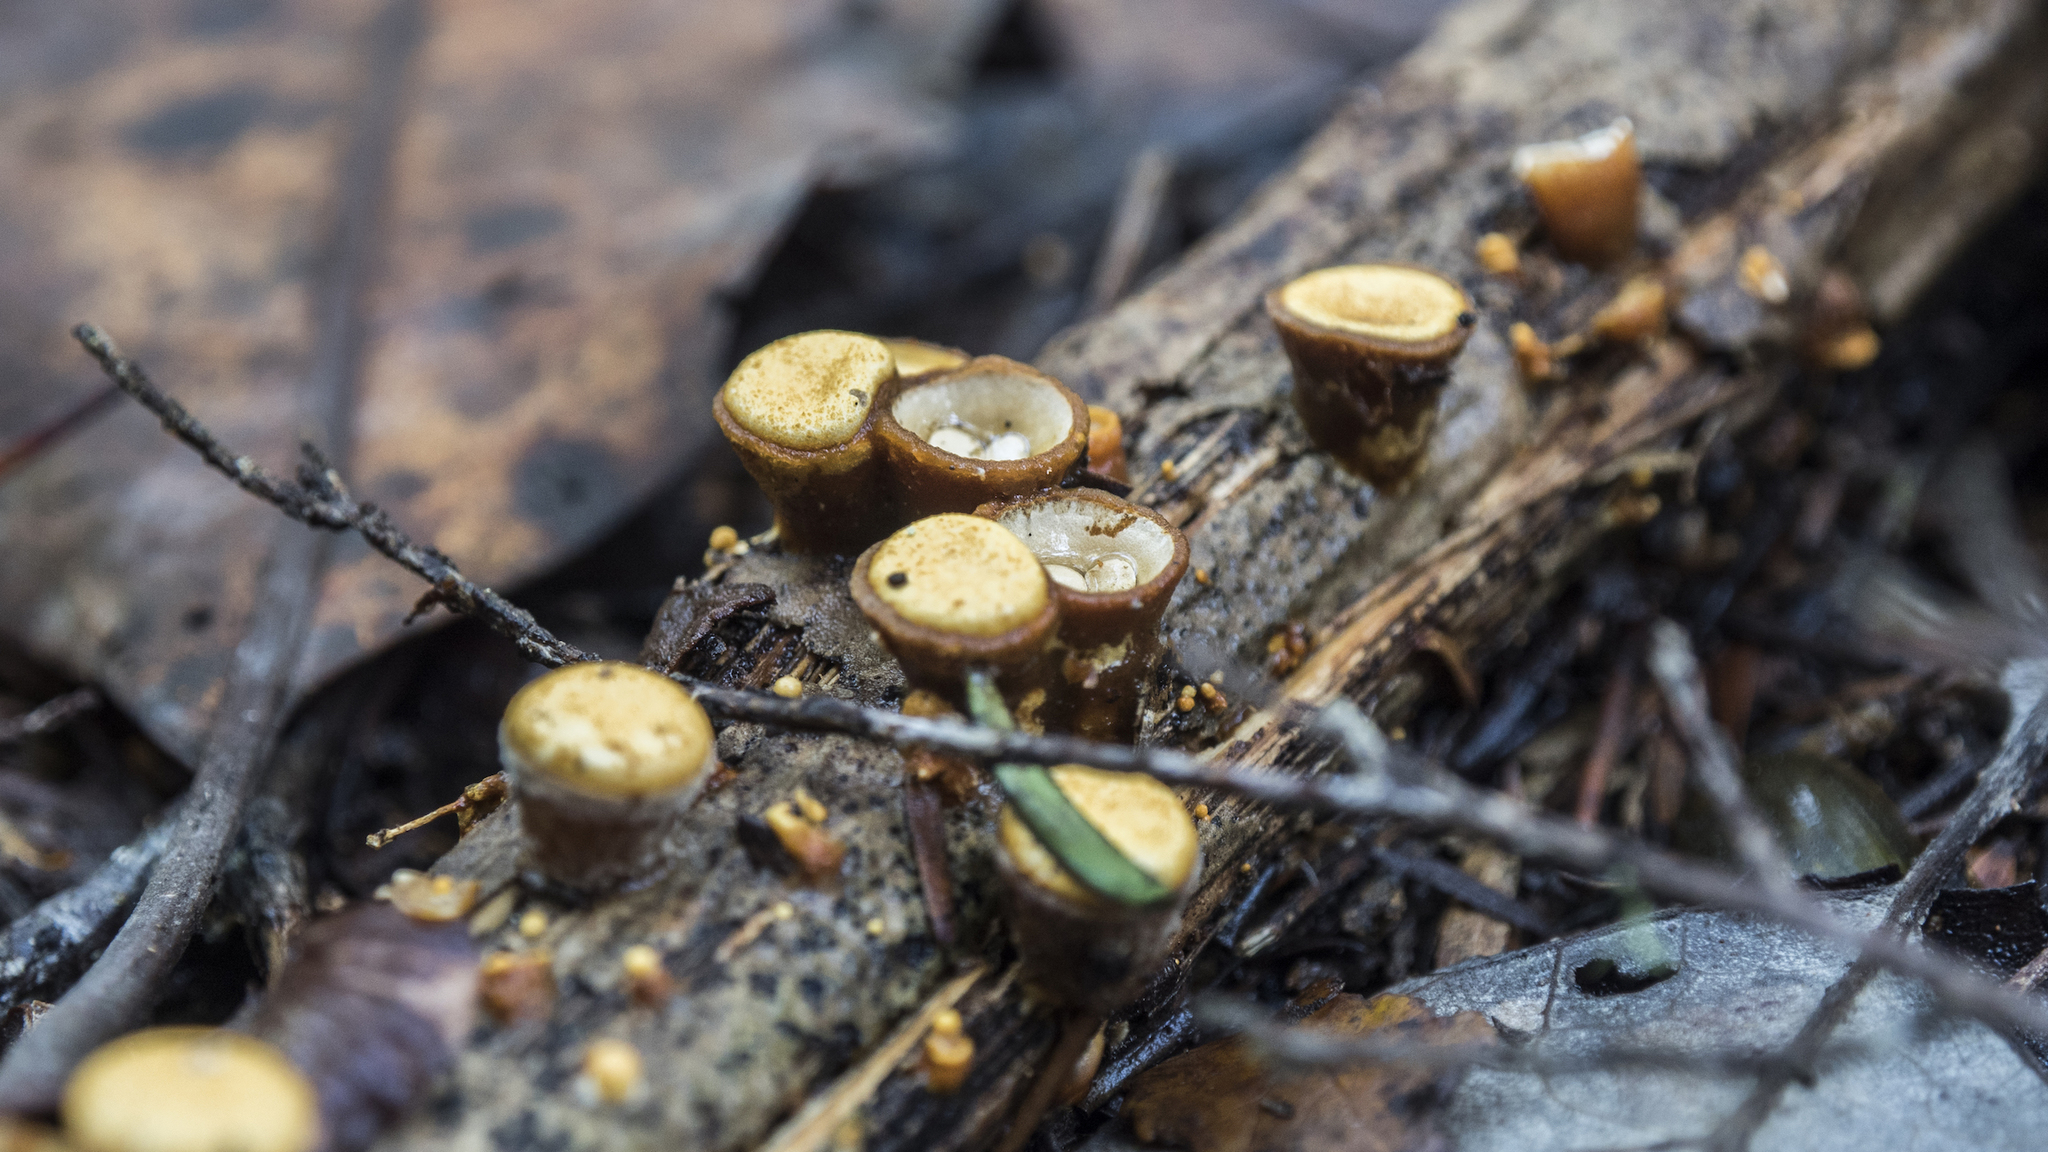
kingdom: Fungi
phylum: Basidiomycota
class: Agaricomycetes
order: Agaricales
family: Nidulariaceae
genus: Crucibulum
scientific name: Crucibulum simile
